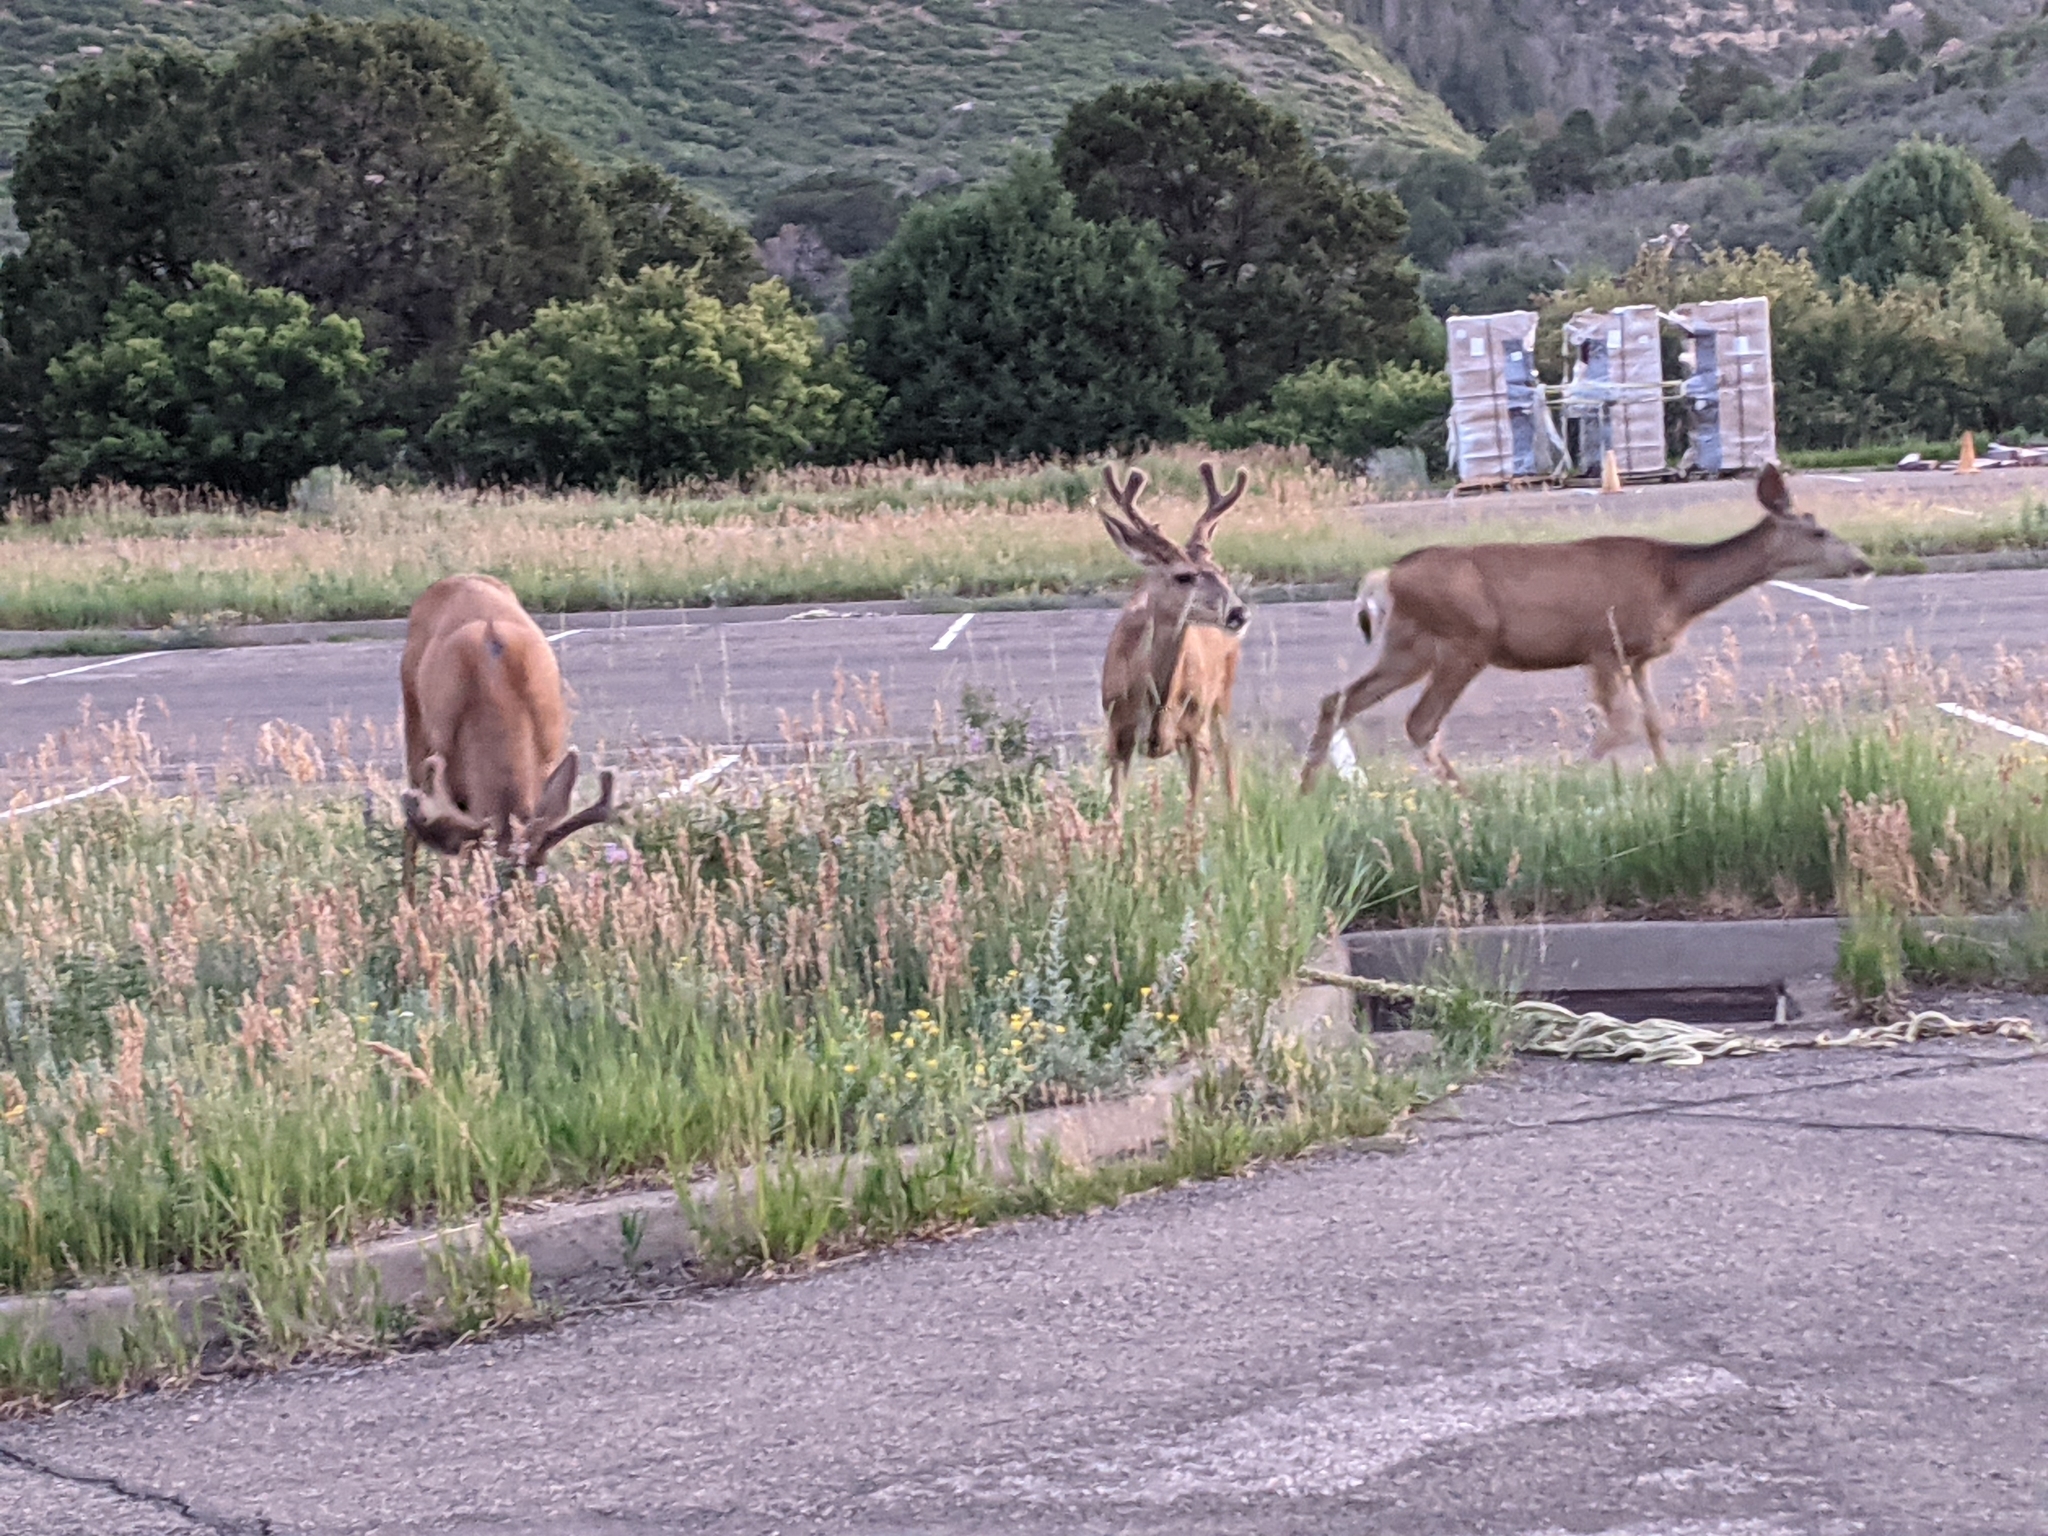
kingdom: Animalia
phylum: Chordata
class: Mammalia
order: Artiodactyla
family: Cervidae
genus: Odocoileus
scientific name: Odocoileus hemionus
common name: Mule deer
